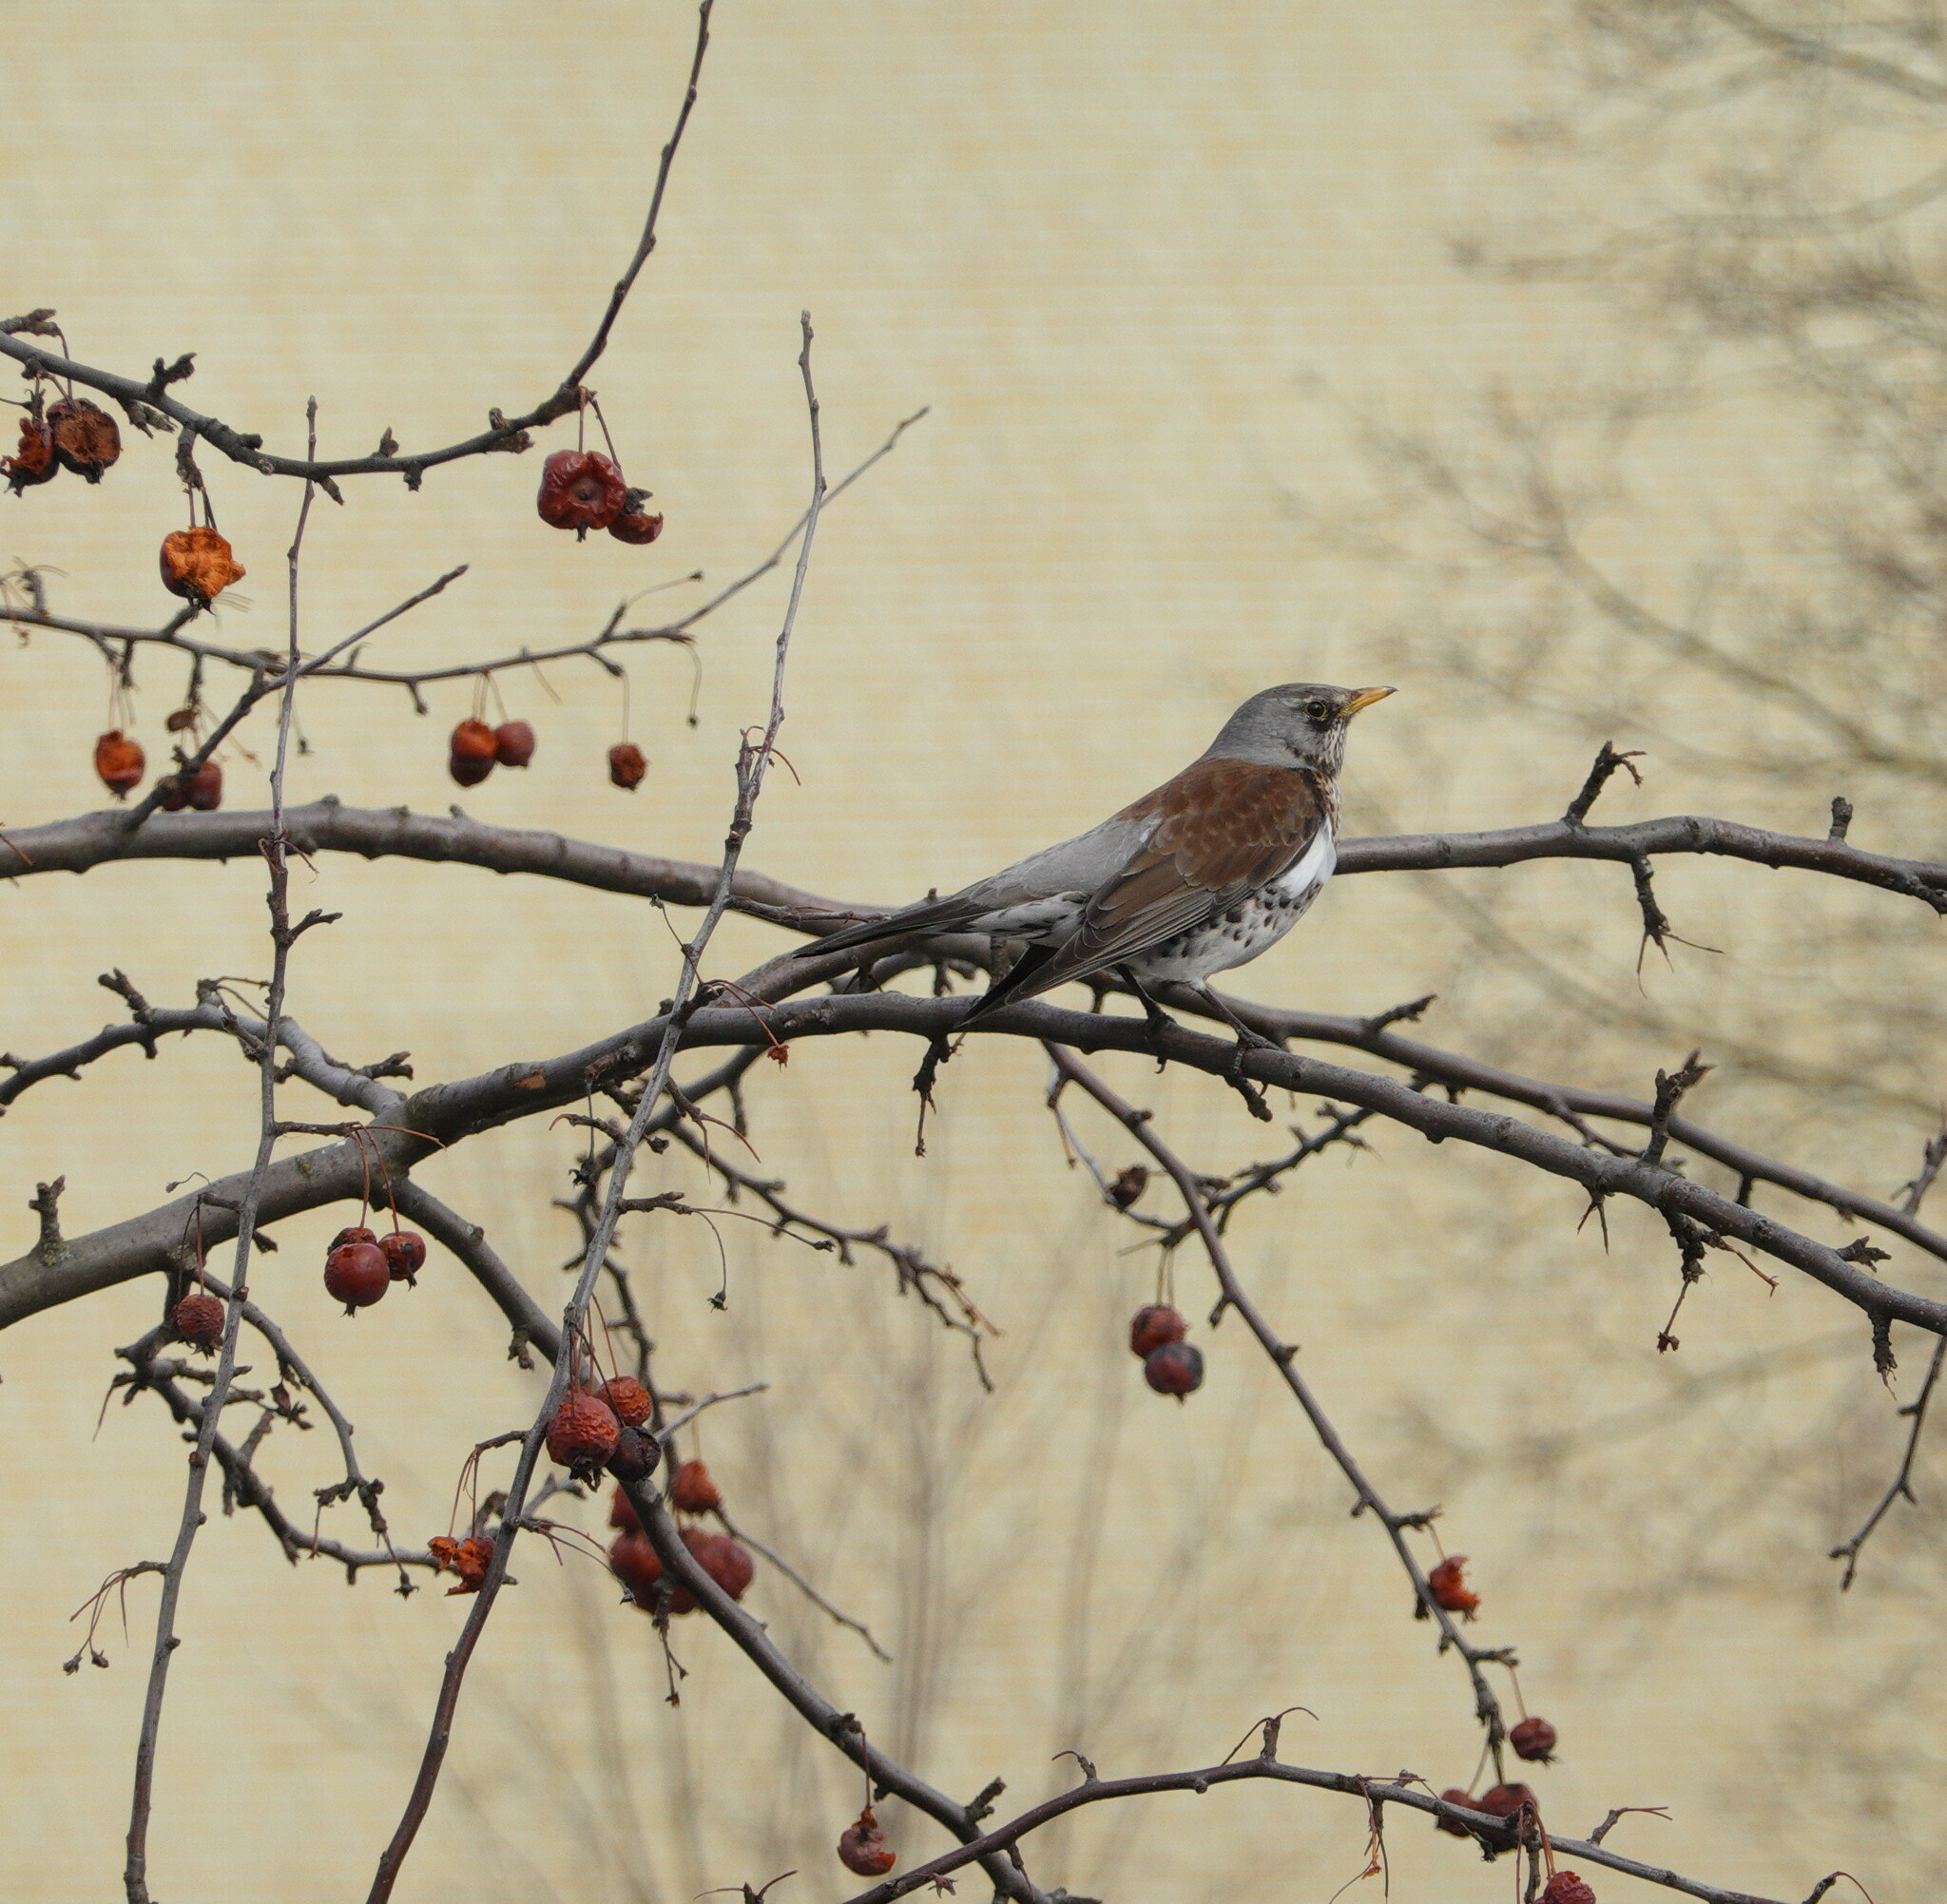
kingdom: Animalia
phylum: Chordata
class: Aves
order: Passeriformes
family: Turdidae
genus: Turdus
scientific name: Turdus pilaris
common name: Fieldfare
